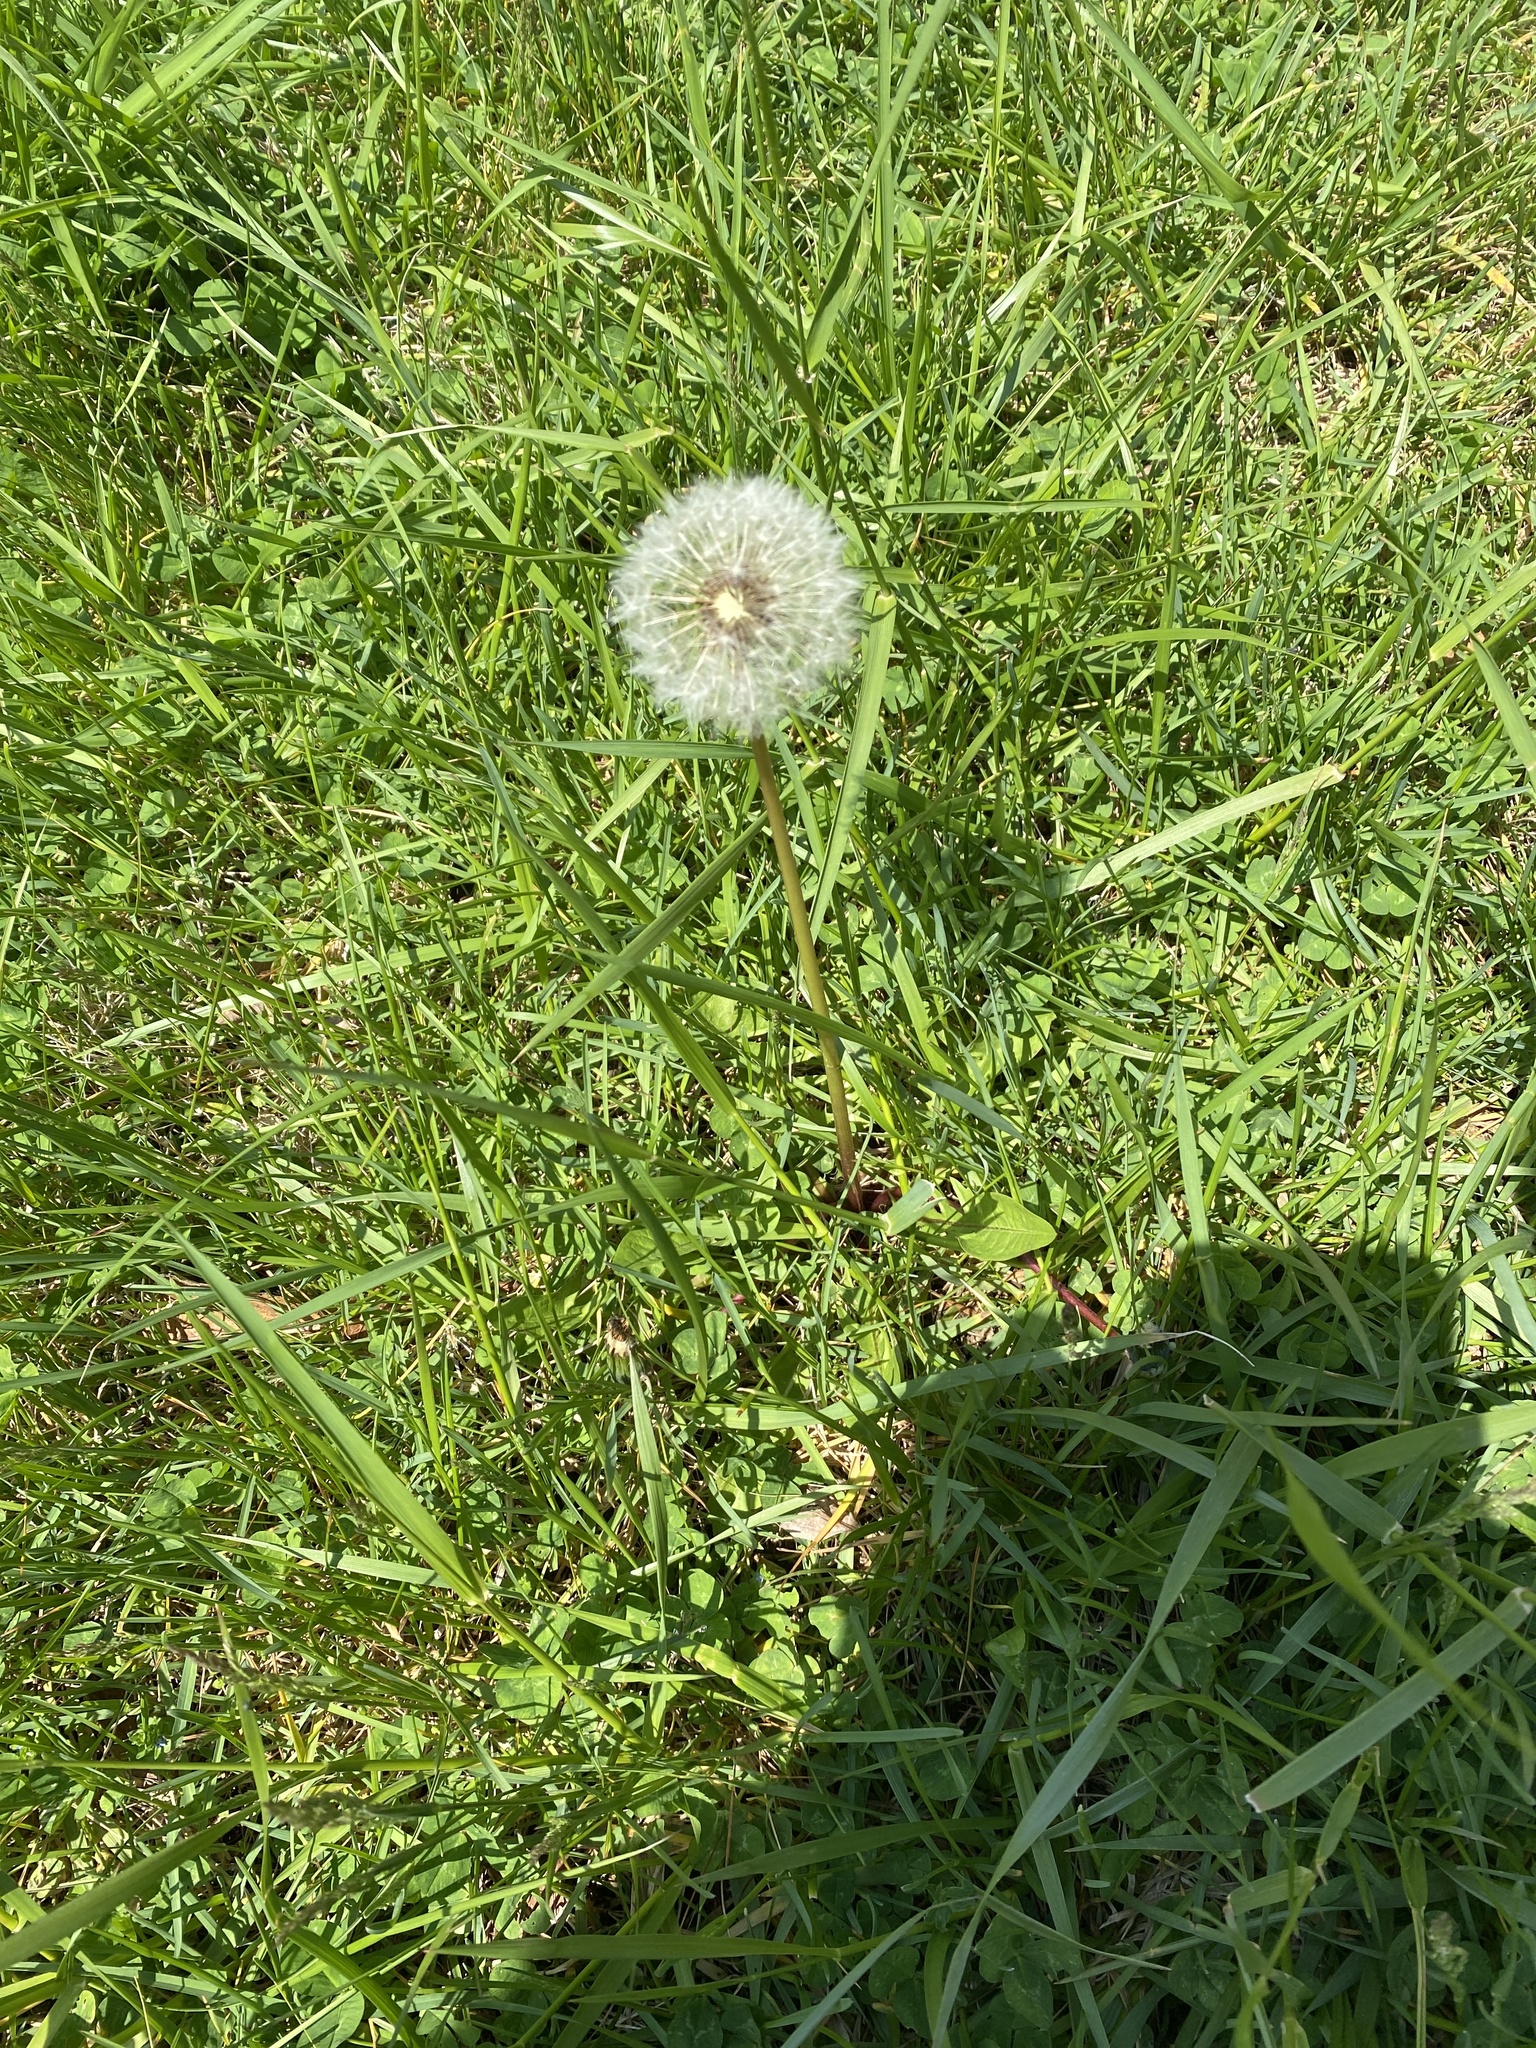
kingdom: Plantae
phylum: Tracheophyta
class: Magnoliopsida
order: Asterales
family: Asteraceae
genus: Taraxacum
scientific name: Taraxacum officinale
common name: Common dandelion
